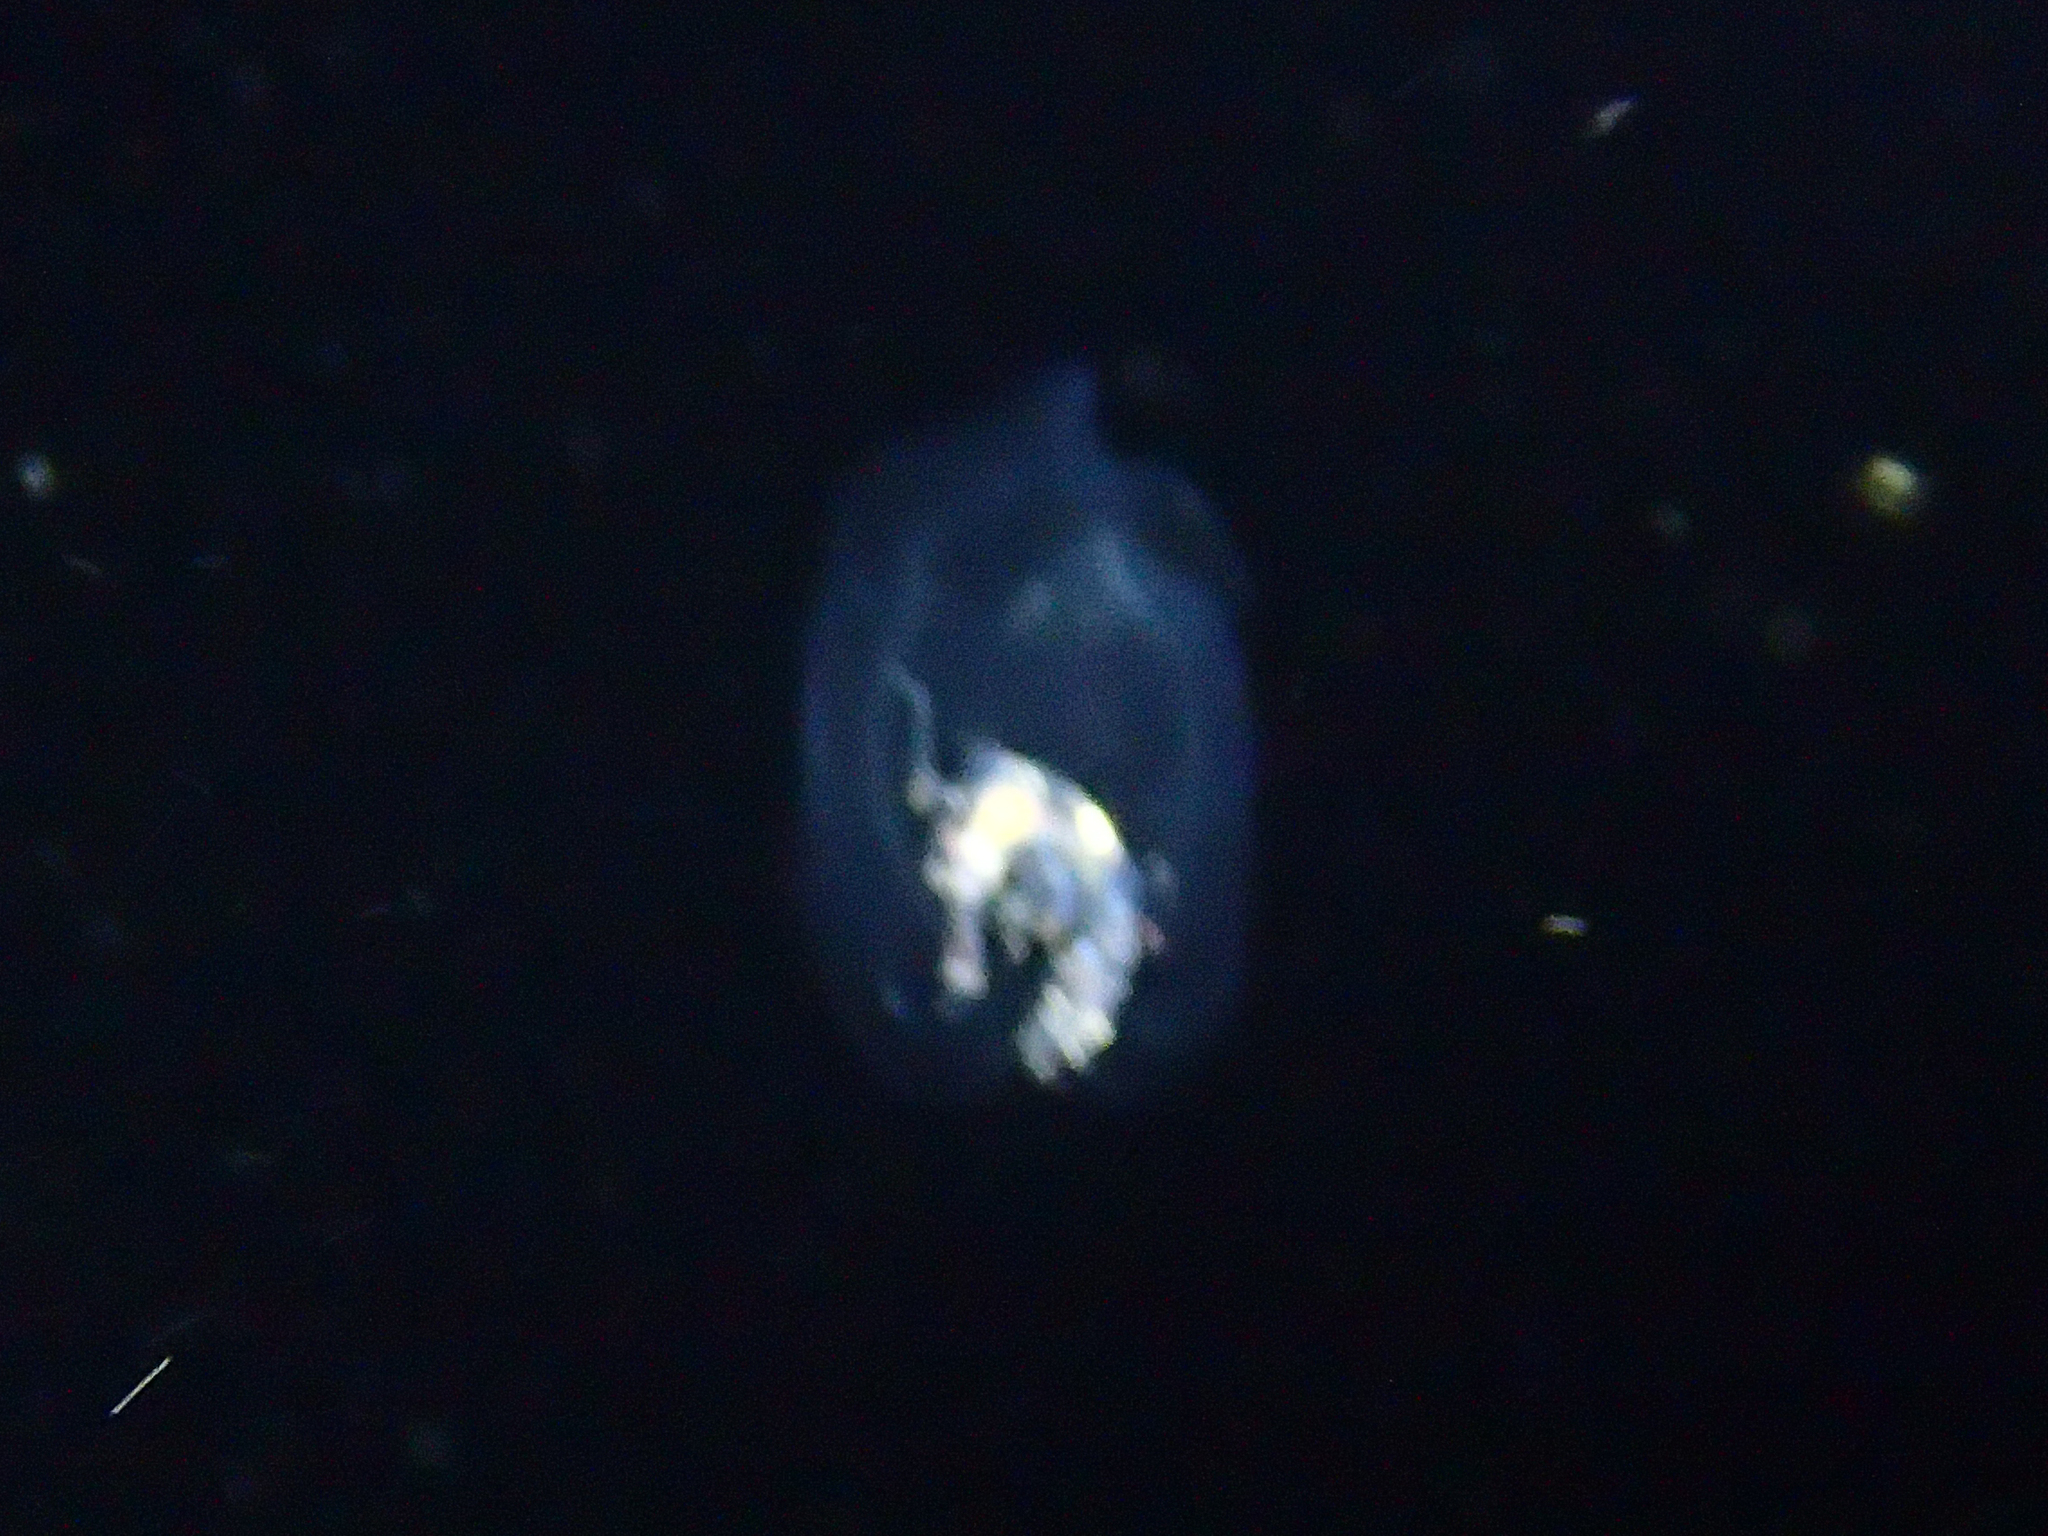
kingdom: Animalia
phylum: Arthropoda
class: Malacostraca
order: Amphipoda
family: Phronimidae
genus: Phronima
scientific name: Phronima sedentaria
